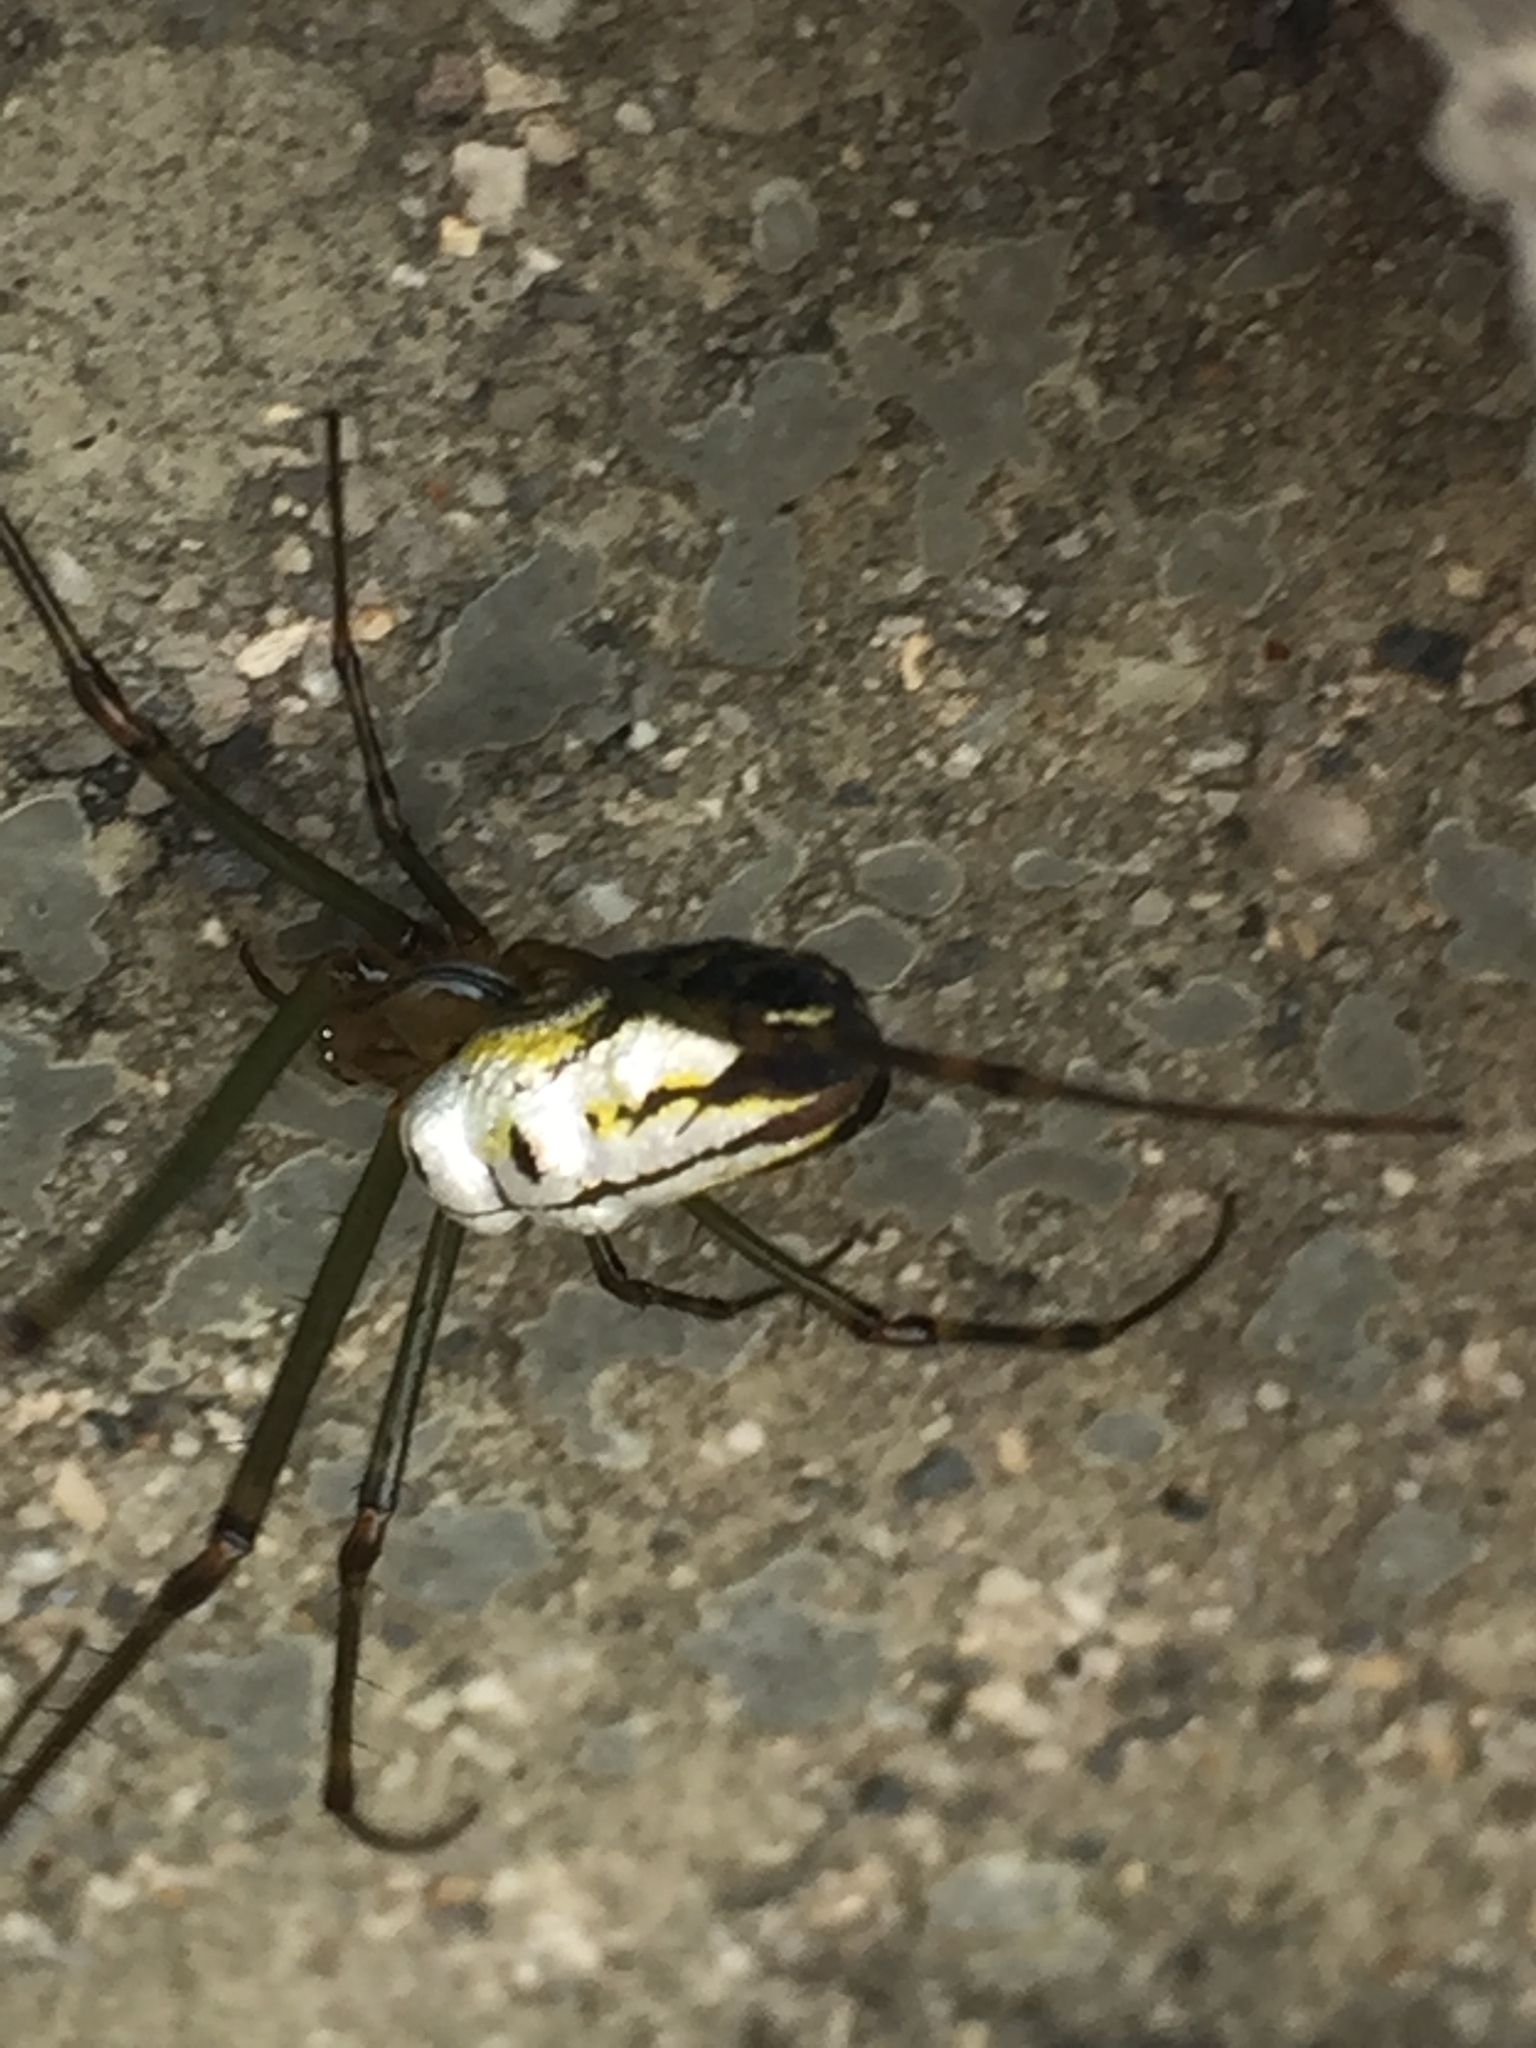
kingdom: Animalia
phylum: Arthropoda
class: Arachnida
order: Araneae
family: Tetragnathidae
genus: Leucauge
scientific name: Leucauge dromedaria
